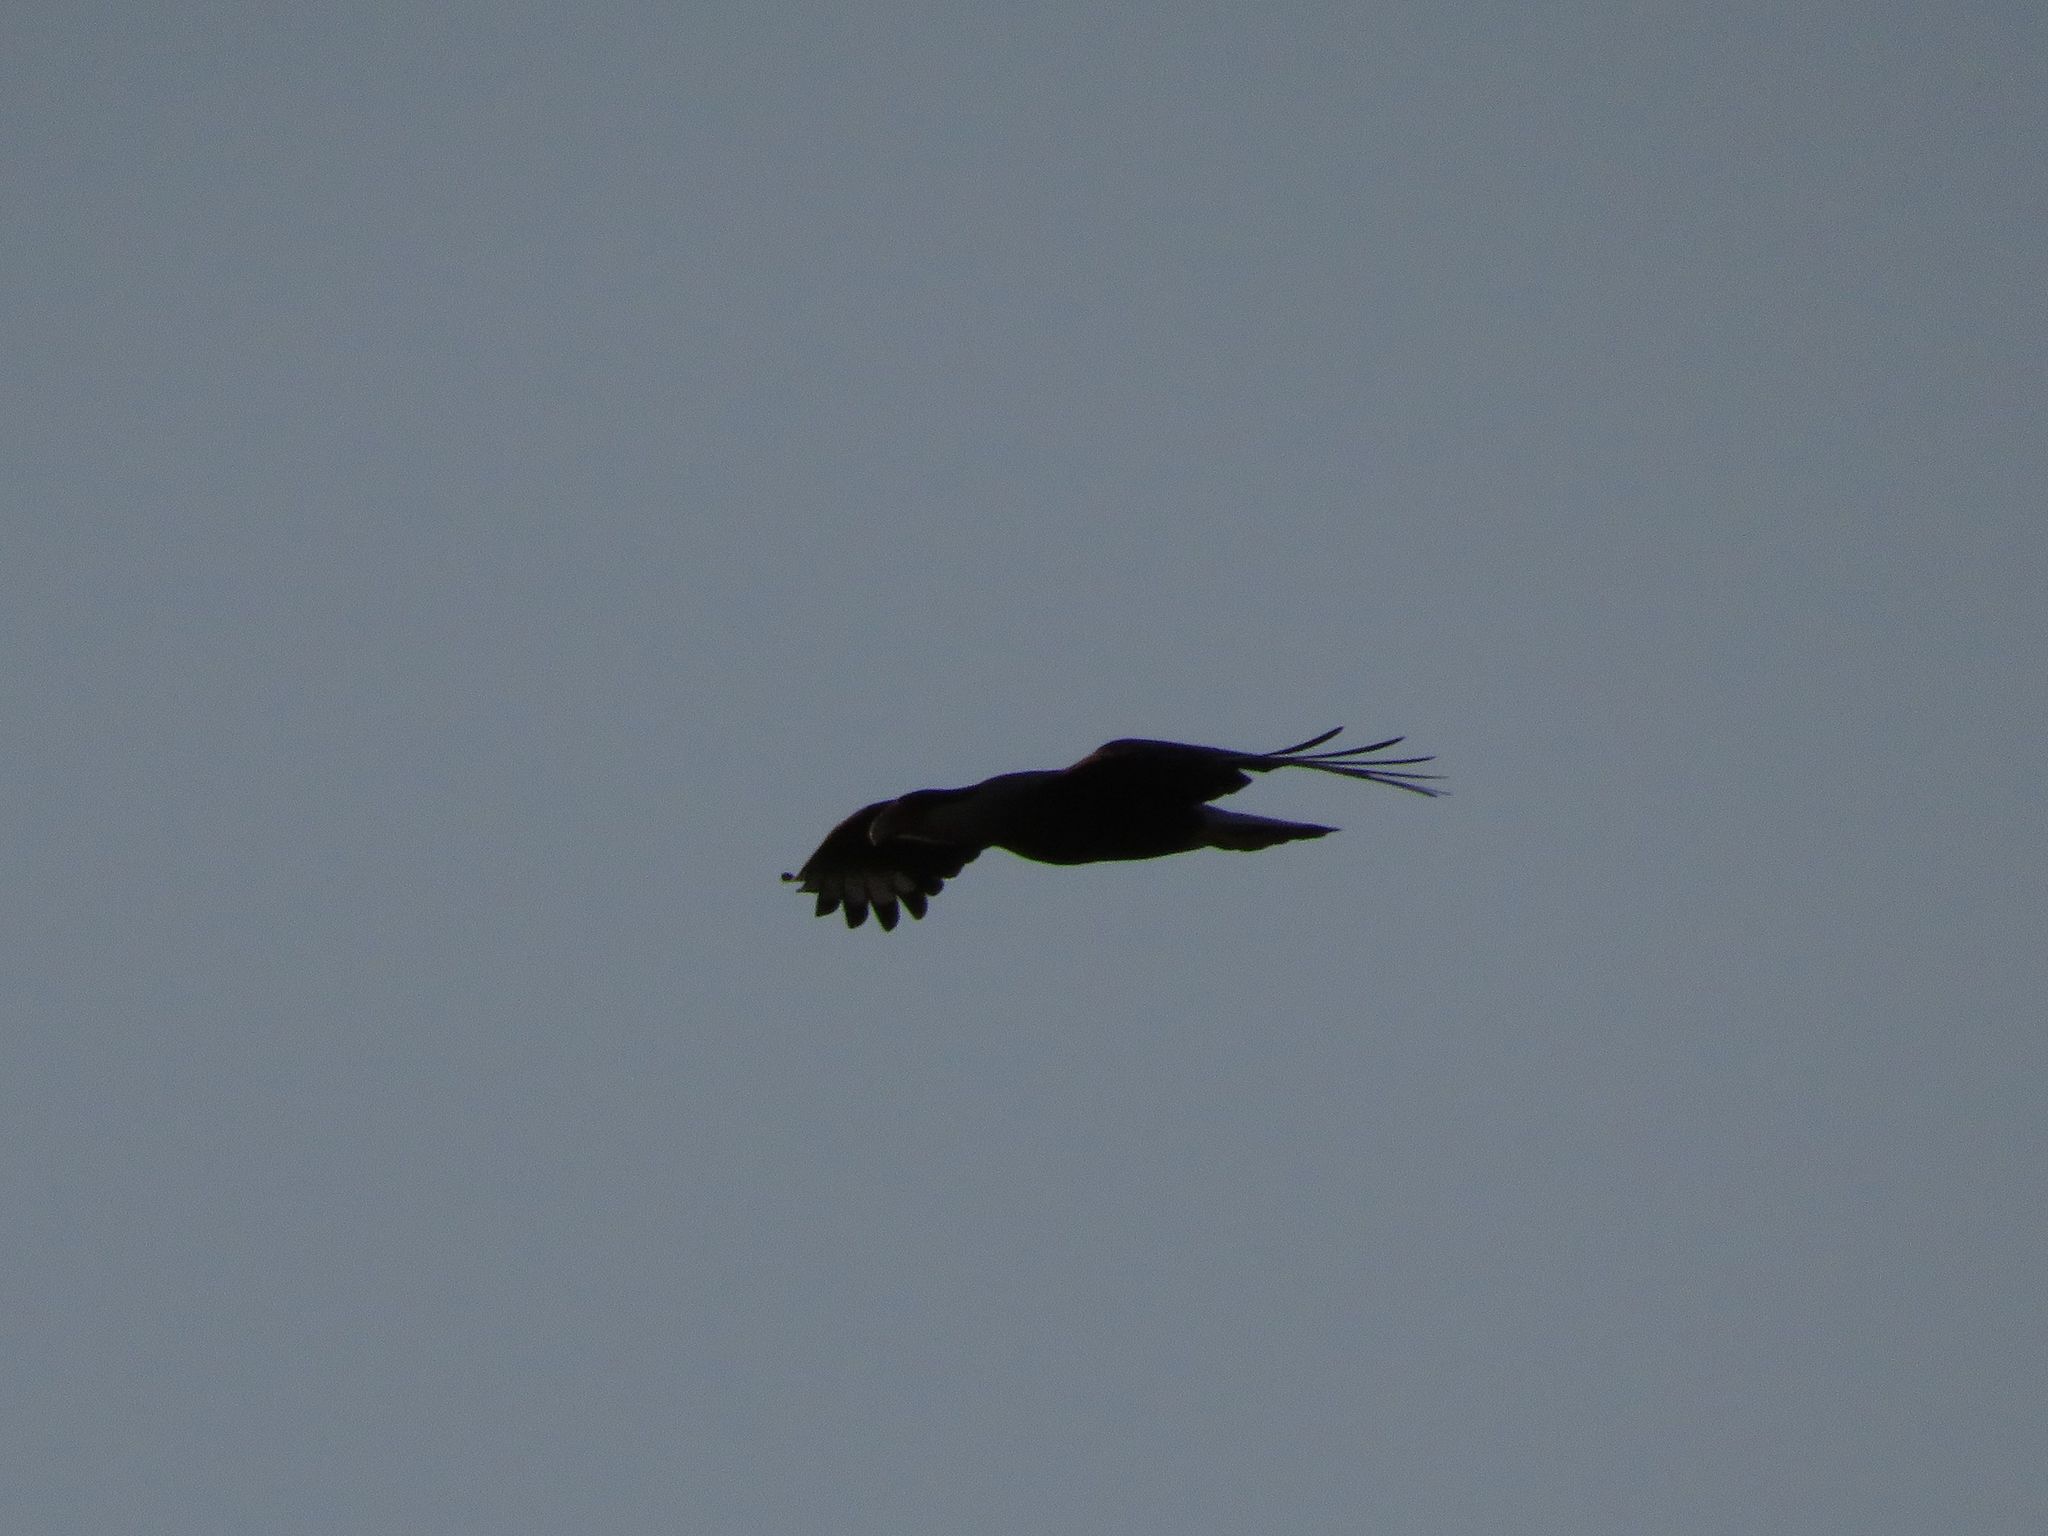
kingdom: Animalia
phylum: Chordata
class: Aves
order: Falconiformes
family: Falconidae
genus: Caracara
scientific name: Caracara plancus
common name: Southern caracara
